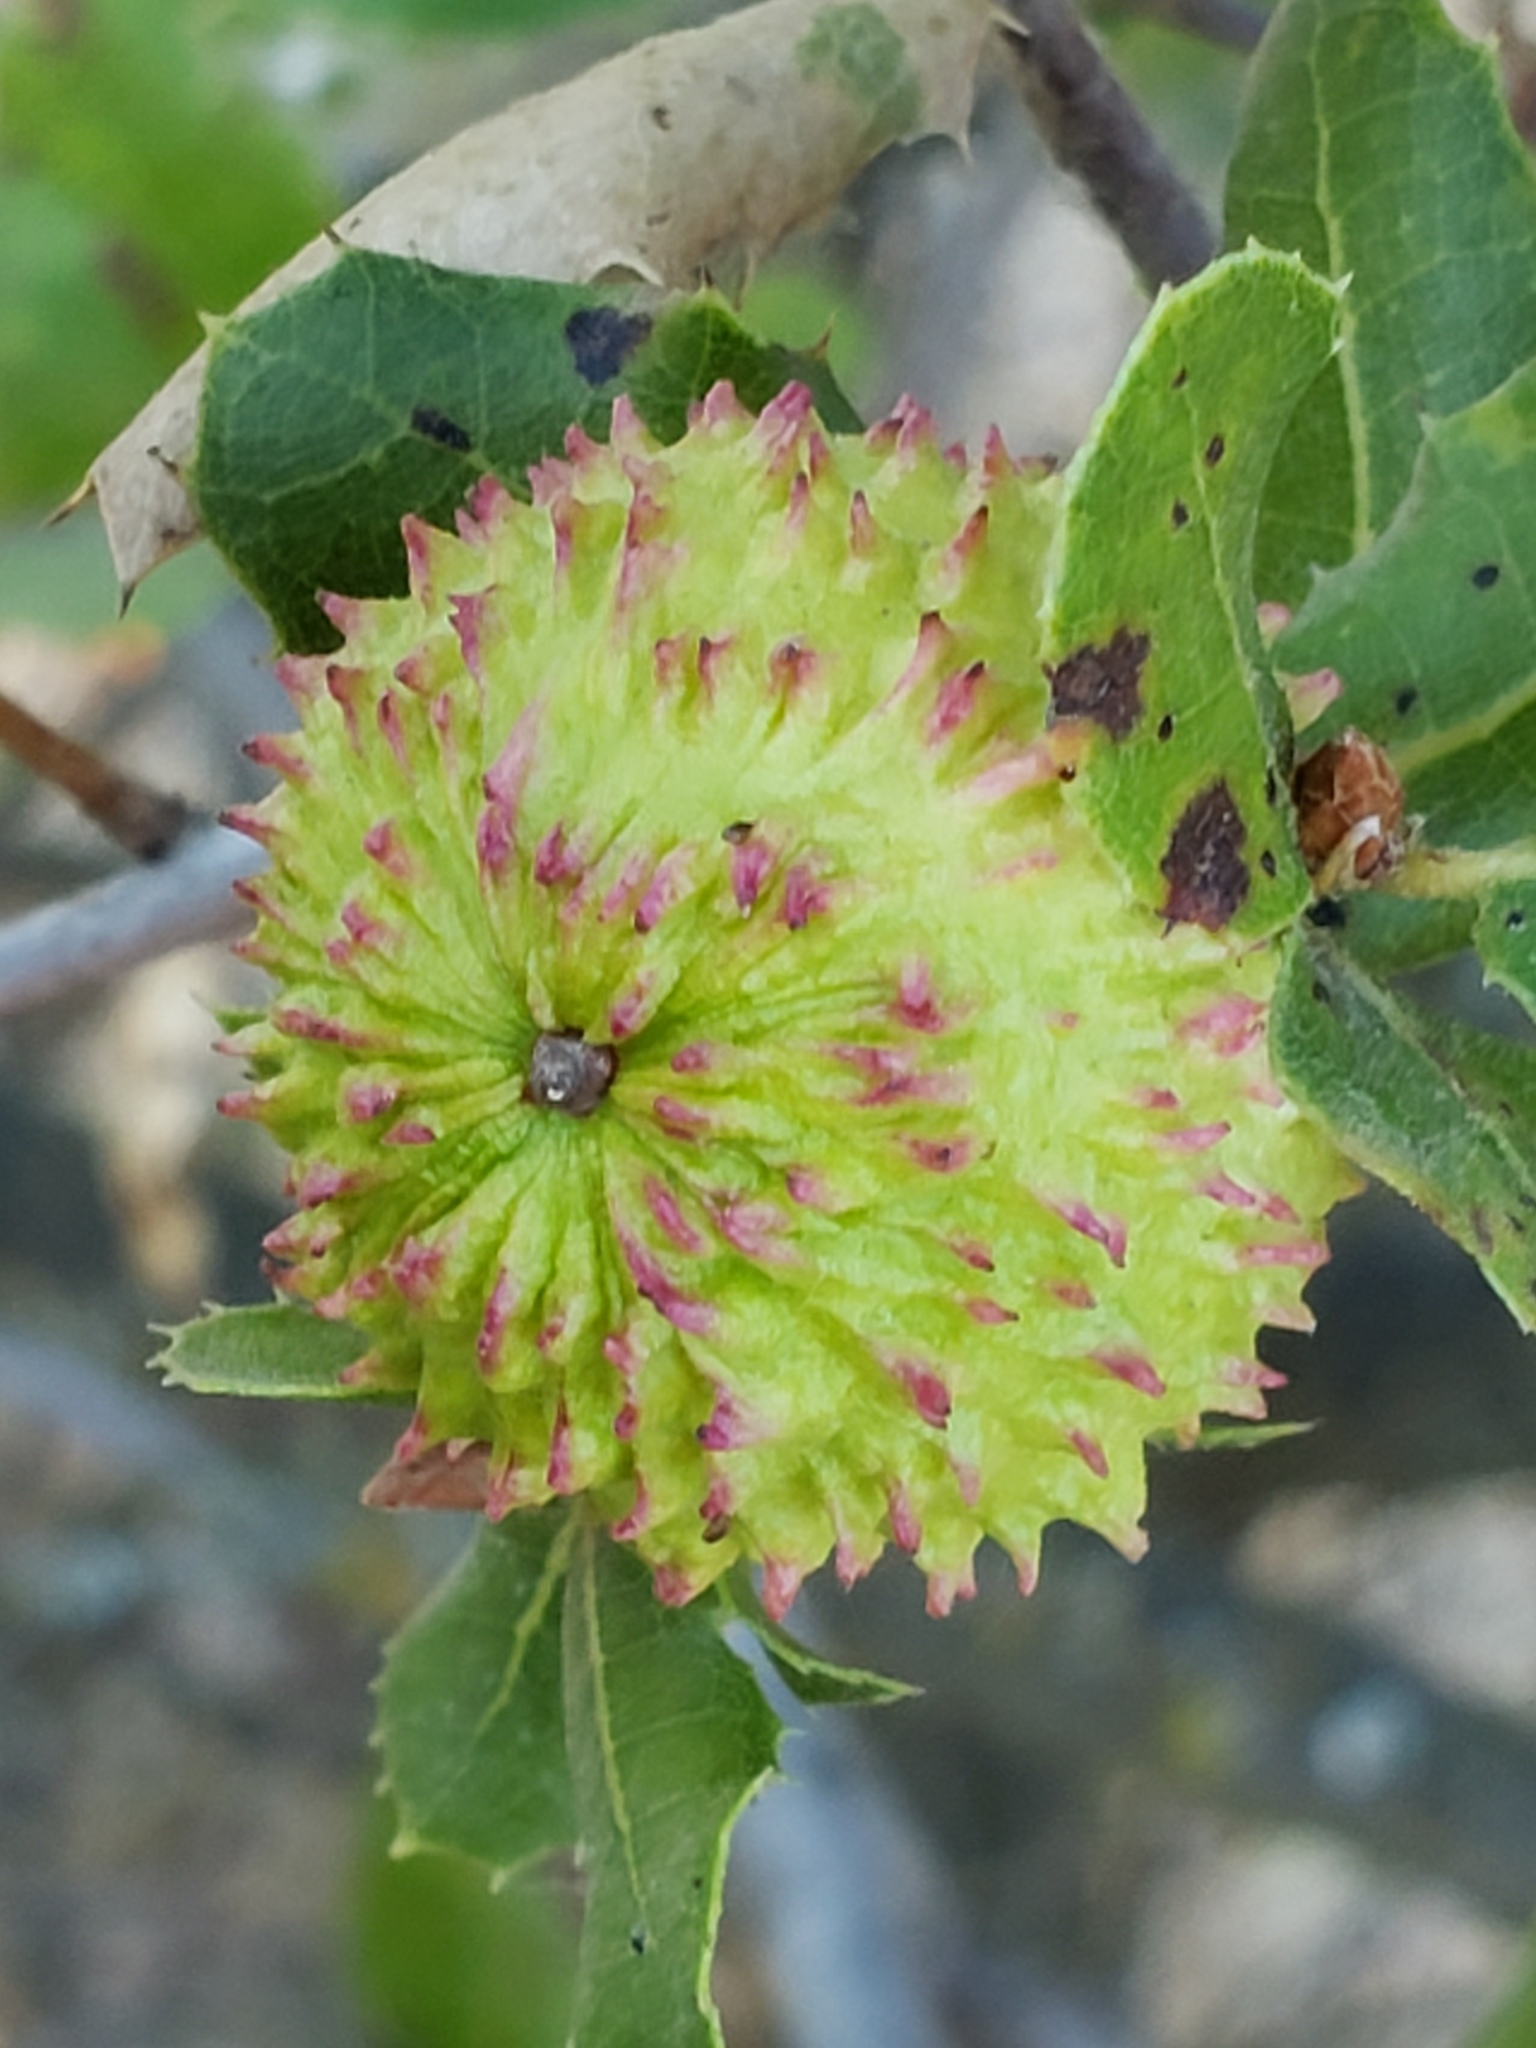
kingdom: Animalia
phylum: Arthropoda
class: Insecta
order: Hymenoptera
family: Cynipidae
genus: Amphibolips
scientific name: Amphibolips quercuspomiformis
